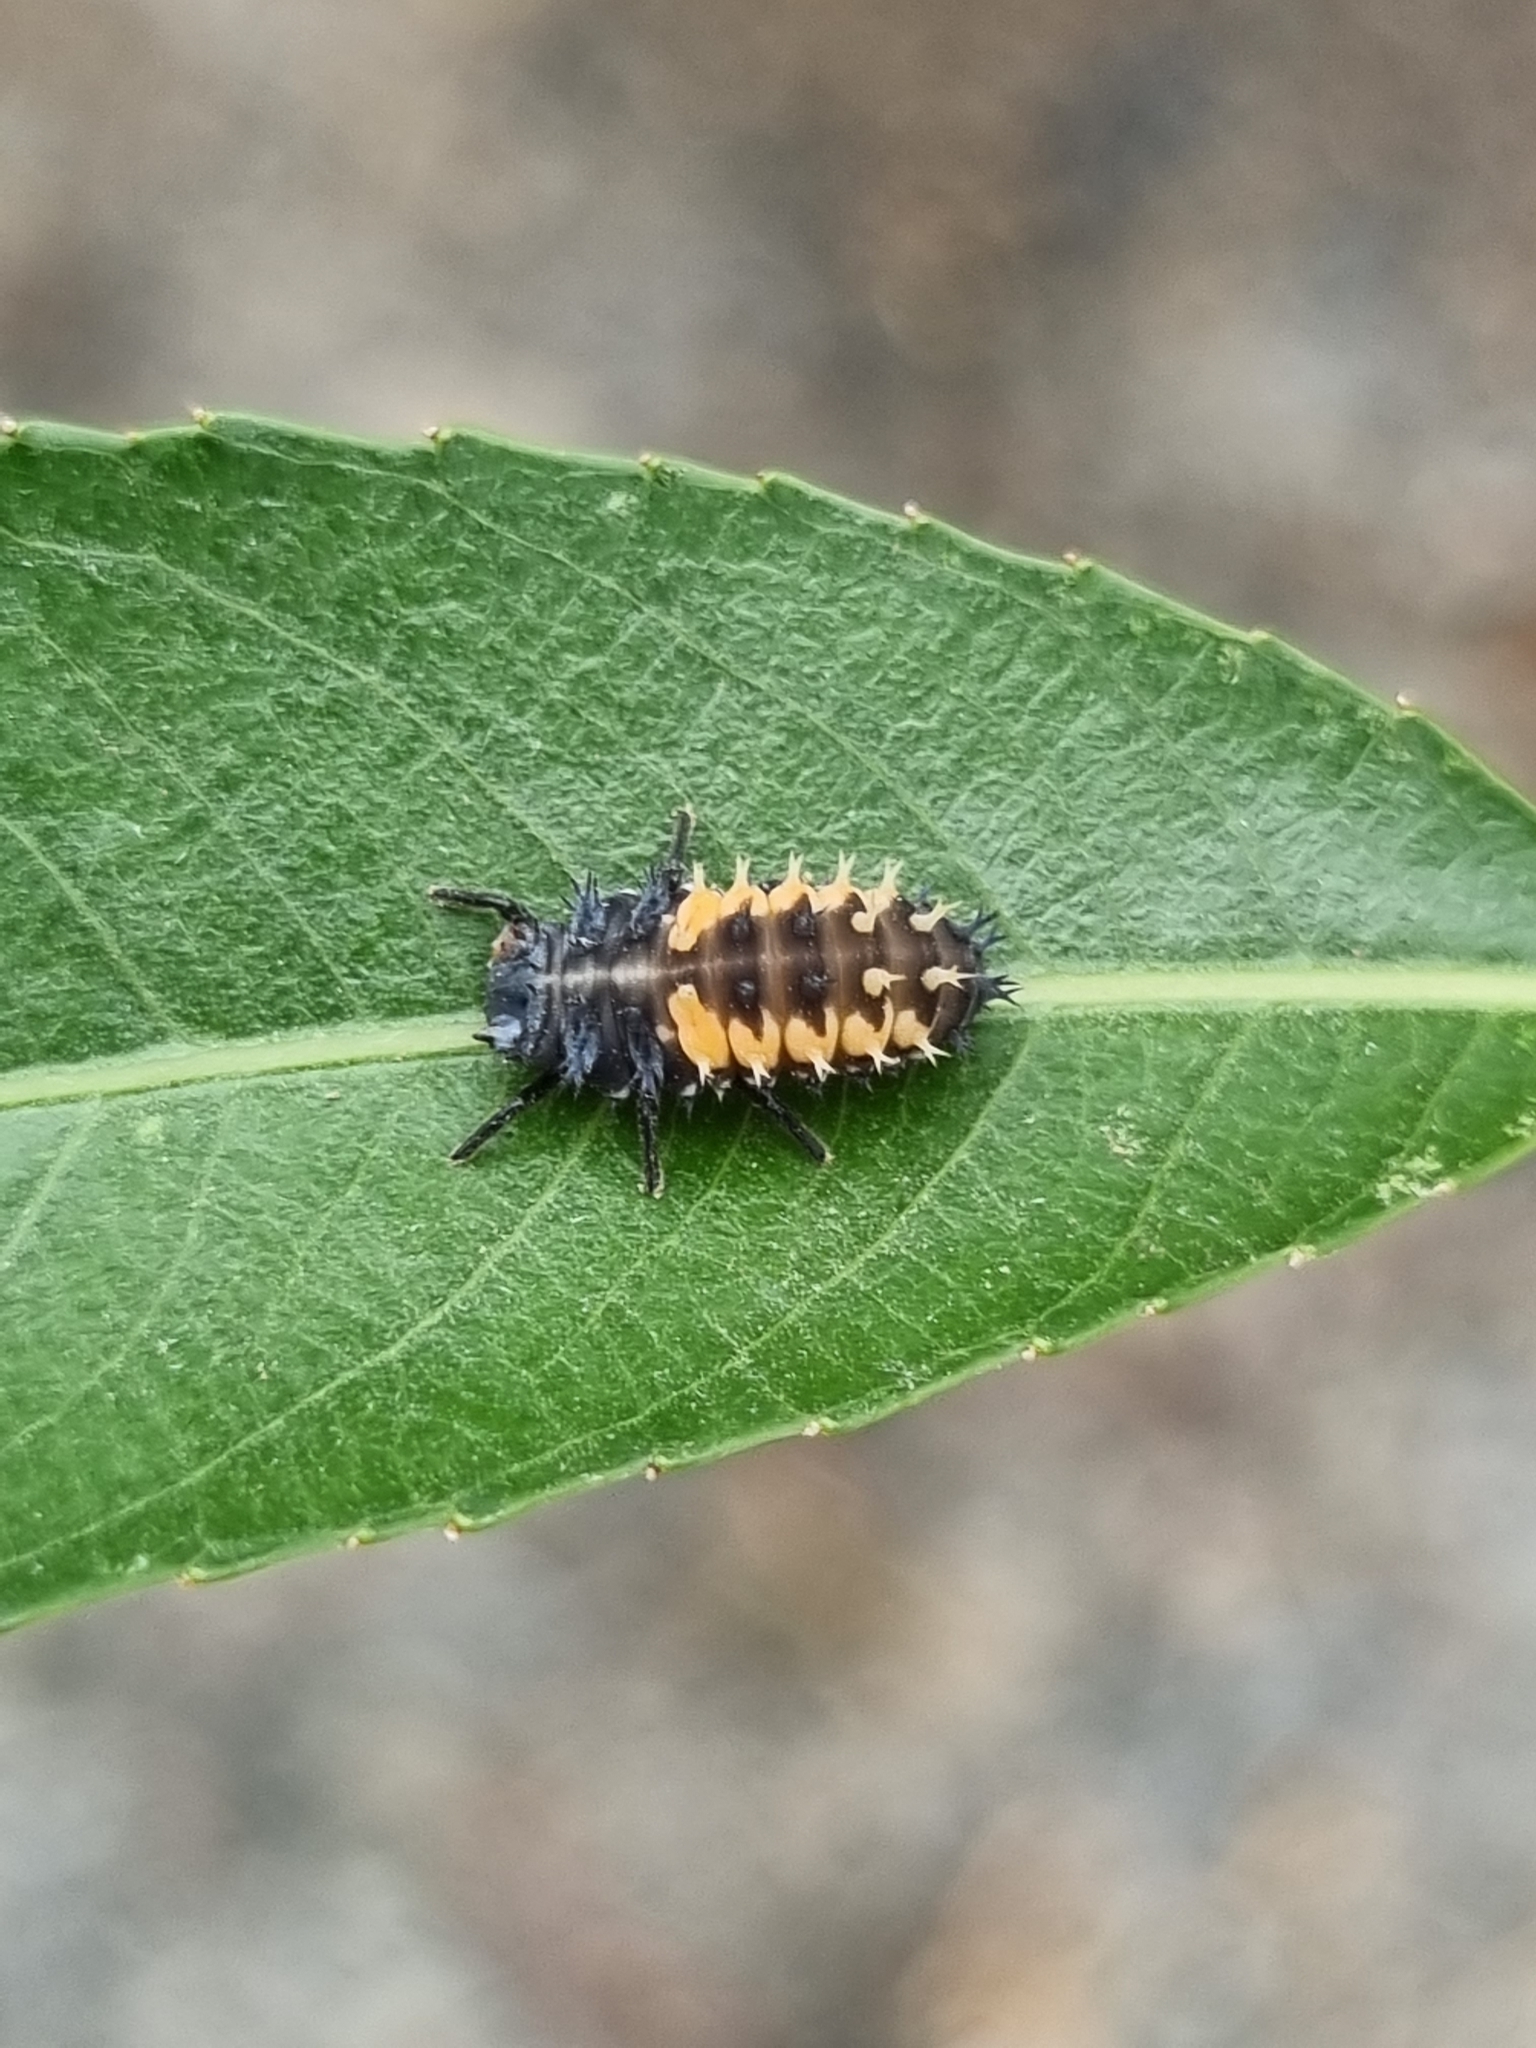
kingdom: Animalia
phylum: Arthropoda
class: Insecta
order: Coleoptera
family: Coccinellidae
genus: Harmonia
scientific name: Harmonia axyridis
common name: Harlequin ladybird
